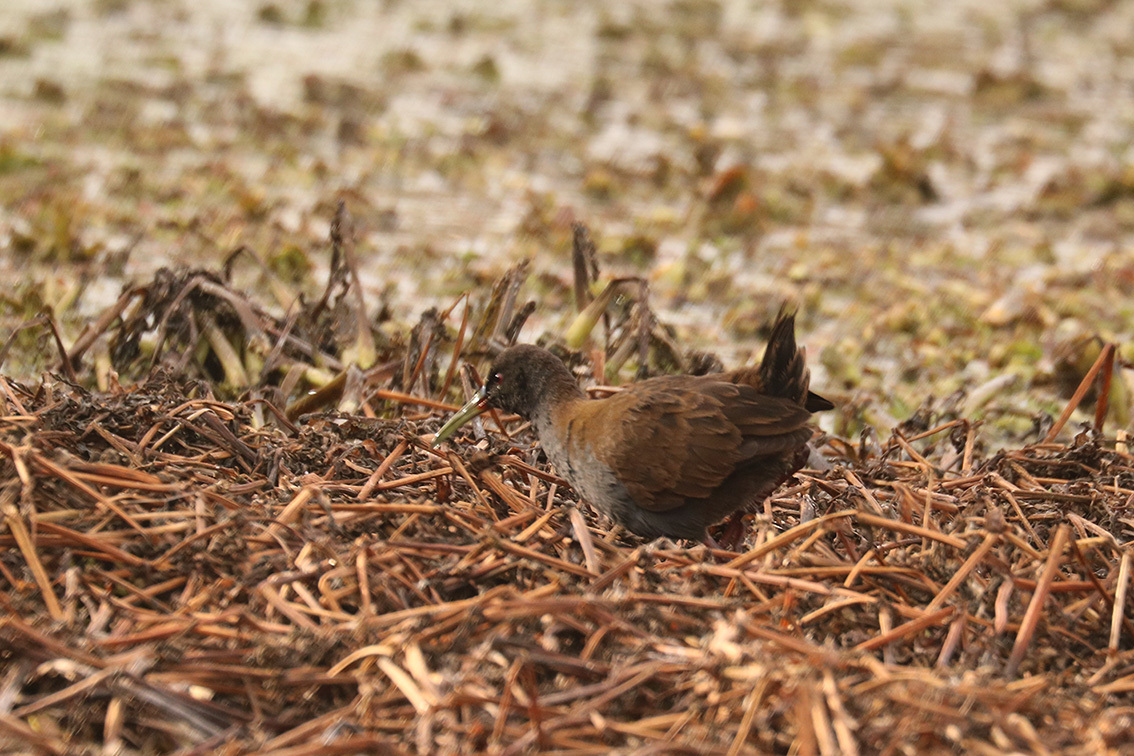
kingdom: Animalia
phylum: Chordata
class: Aves
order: Gruiformes
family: Rallidae
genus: Pardirallus
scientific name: Pardirallus sanguinolentus
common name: Plumbeous rail
